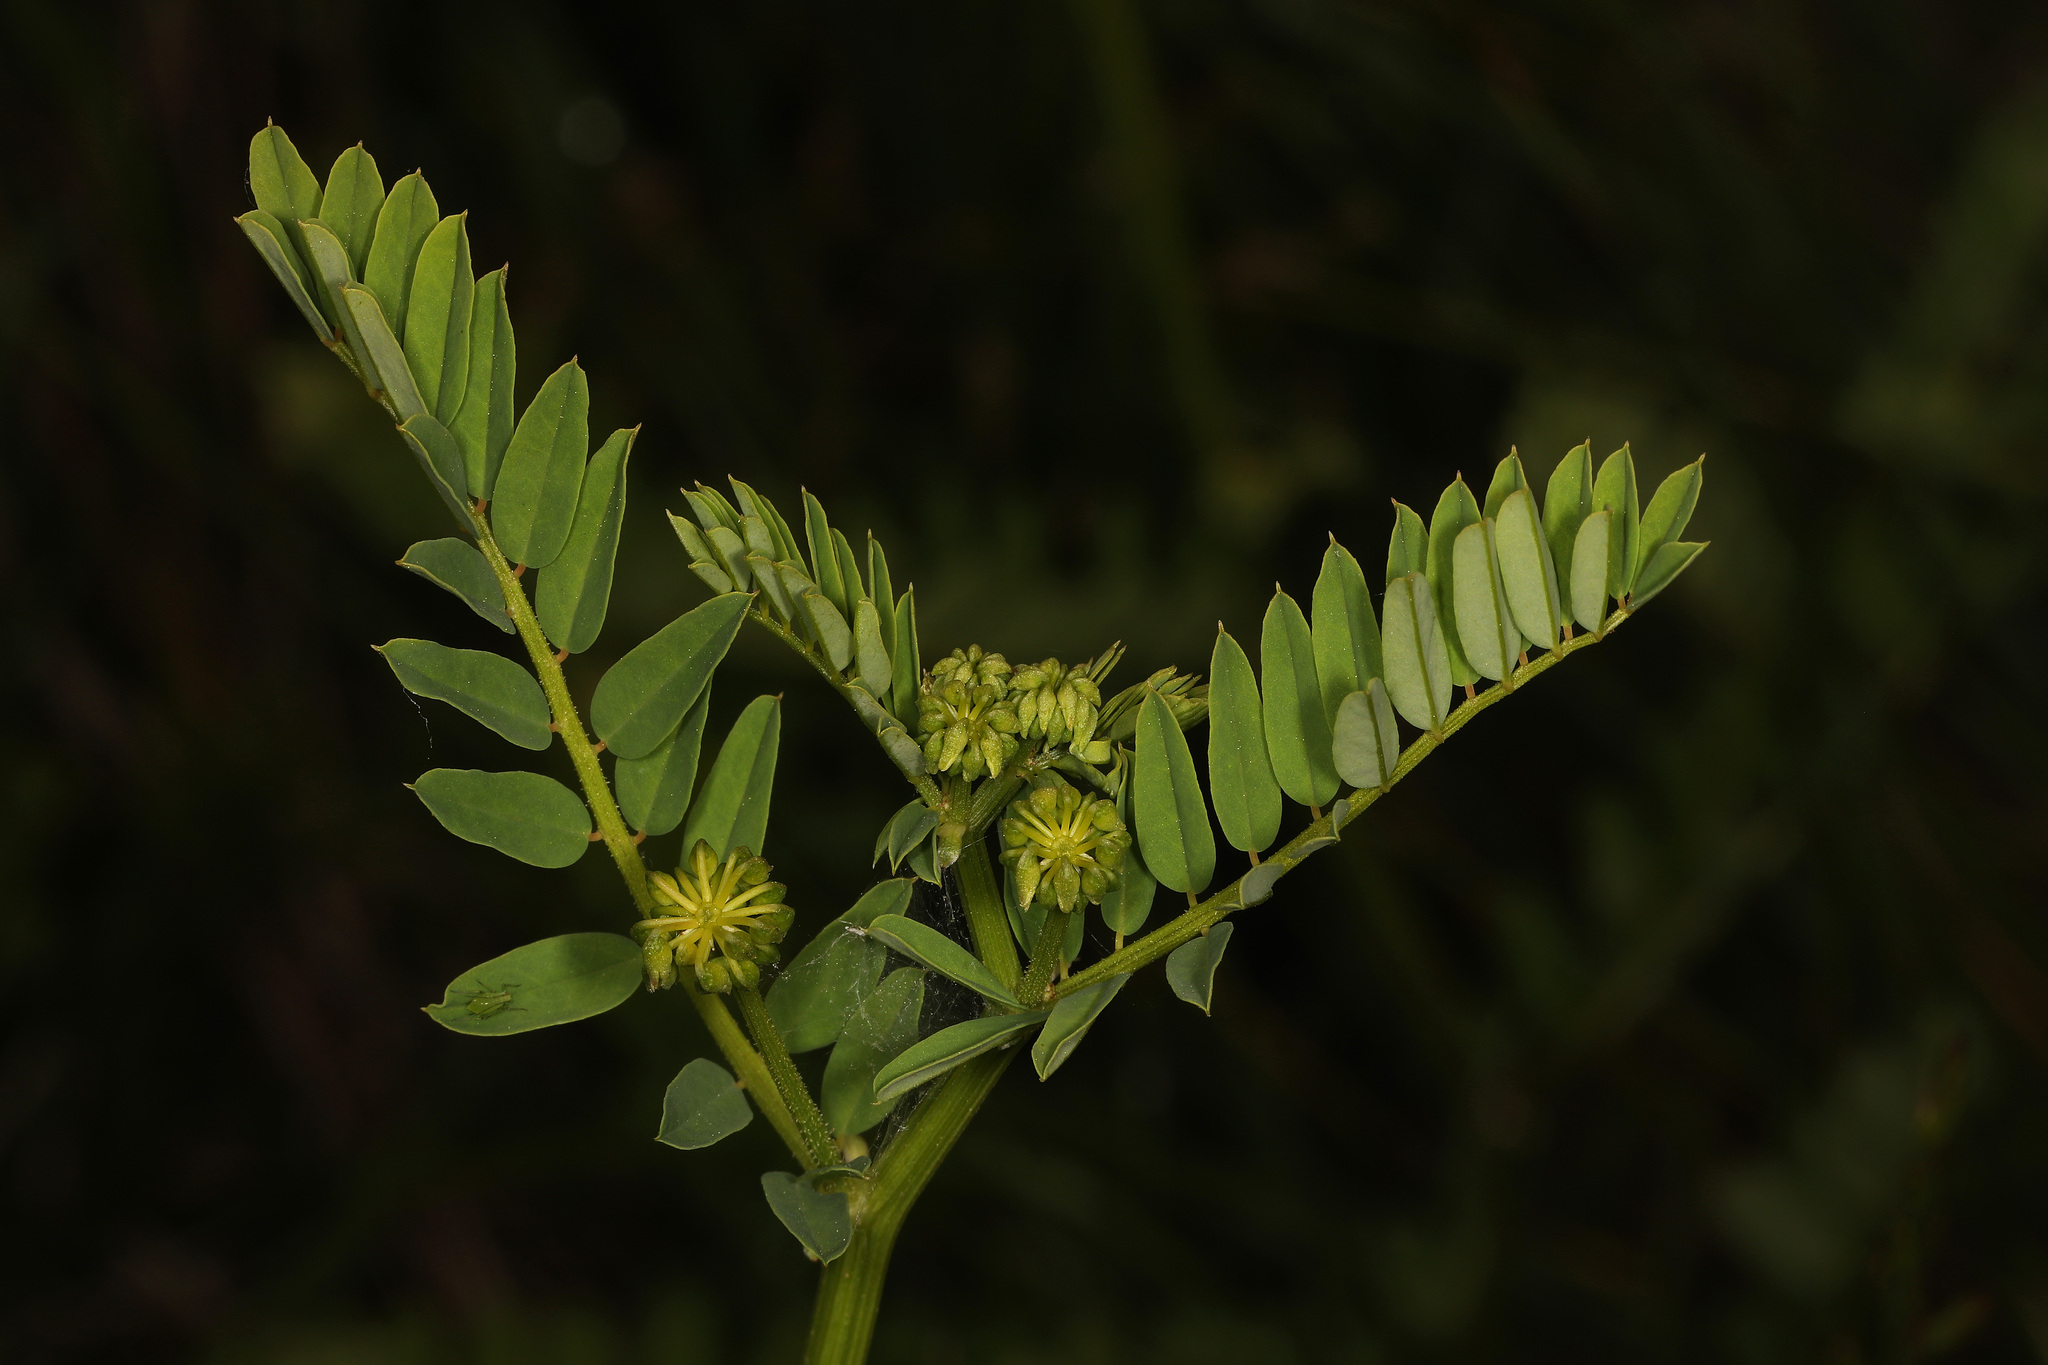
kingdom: Plantae
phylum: Tracheophyta
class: Magnoliopsida
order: Fabales
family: Fabaceae
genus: Coronilla
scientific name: Coronilla varia
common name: Crownvetch
